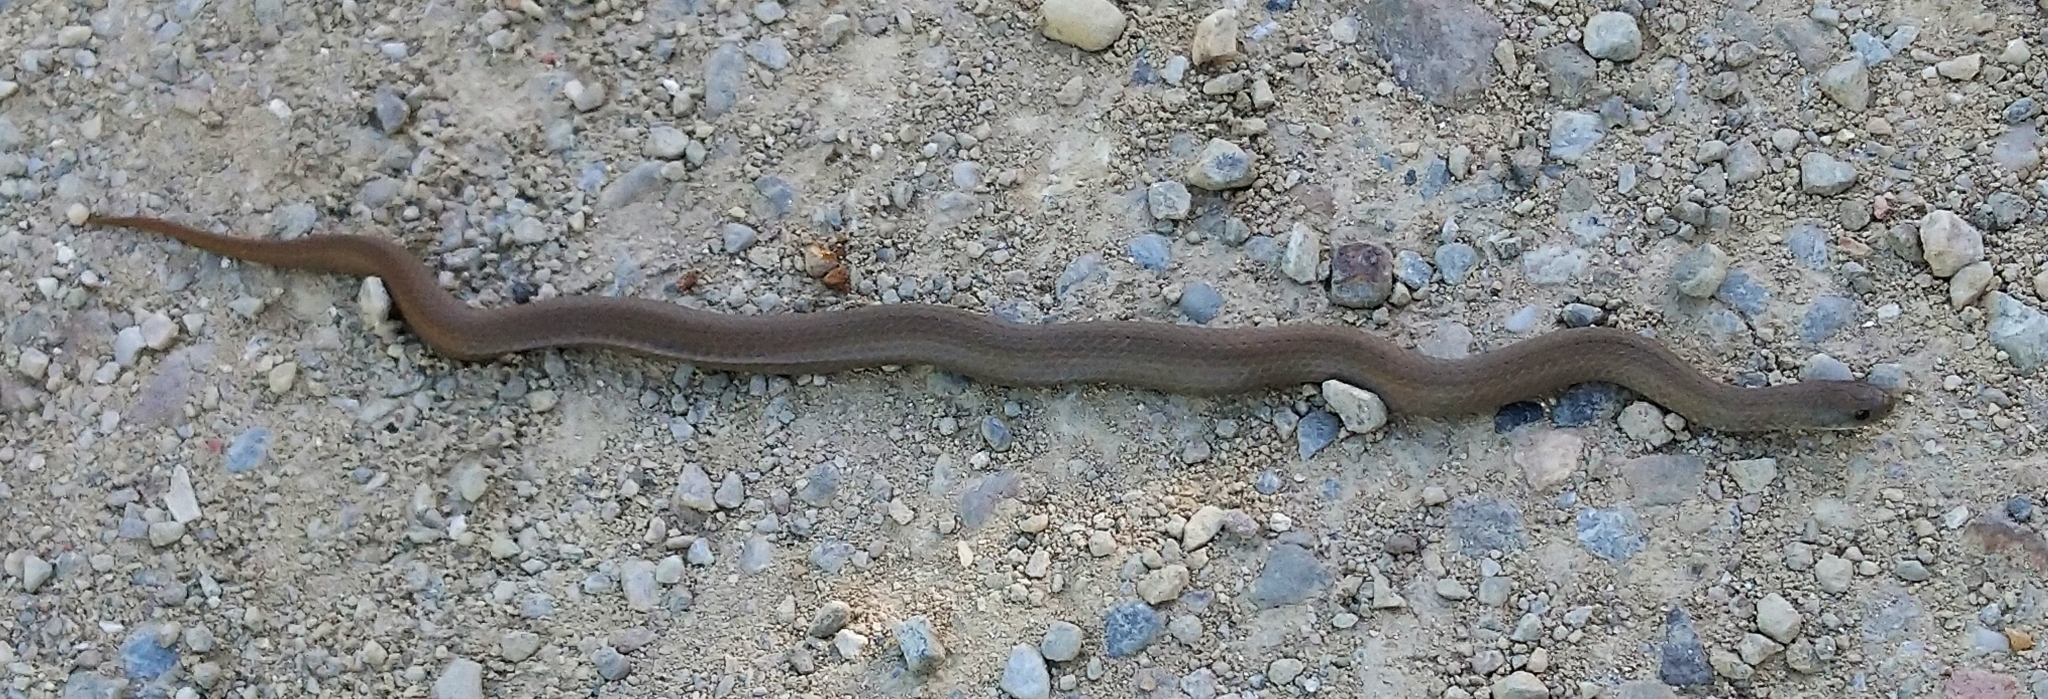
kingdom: Animalia
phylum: Chordata
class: Squamata
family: Pseudoxyrhophiidae
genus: Duberria
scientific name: Duberria lutrix
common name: Common slug eater
